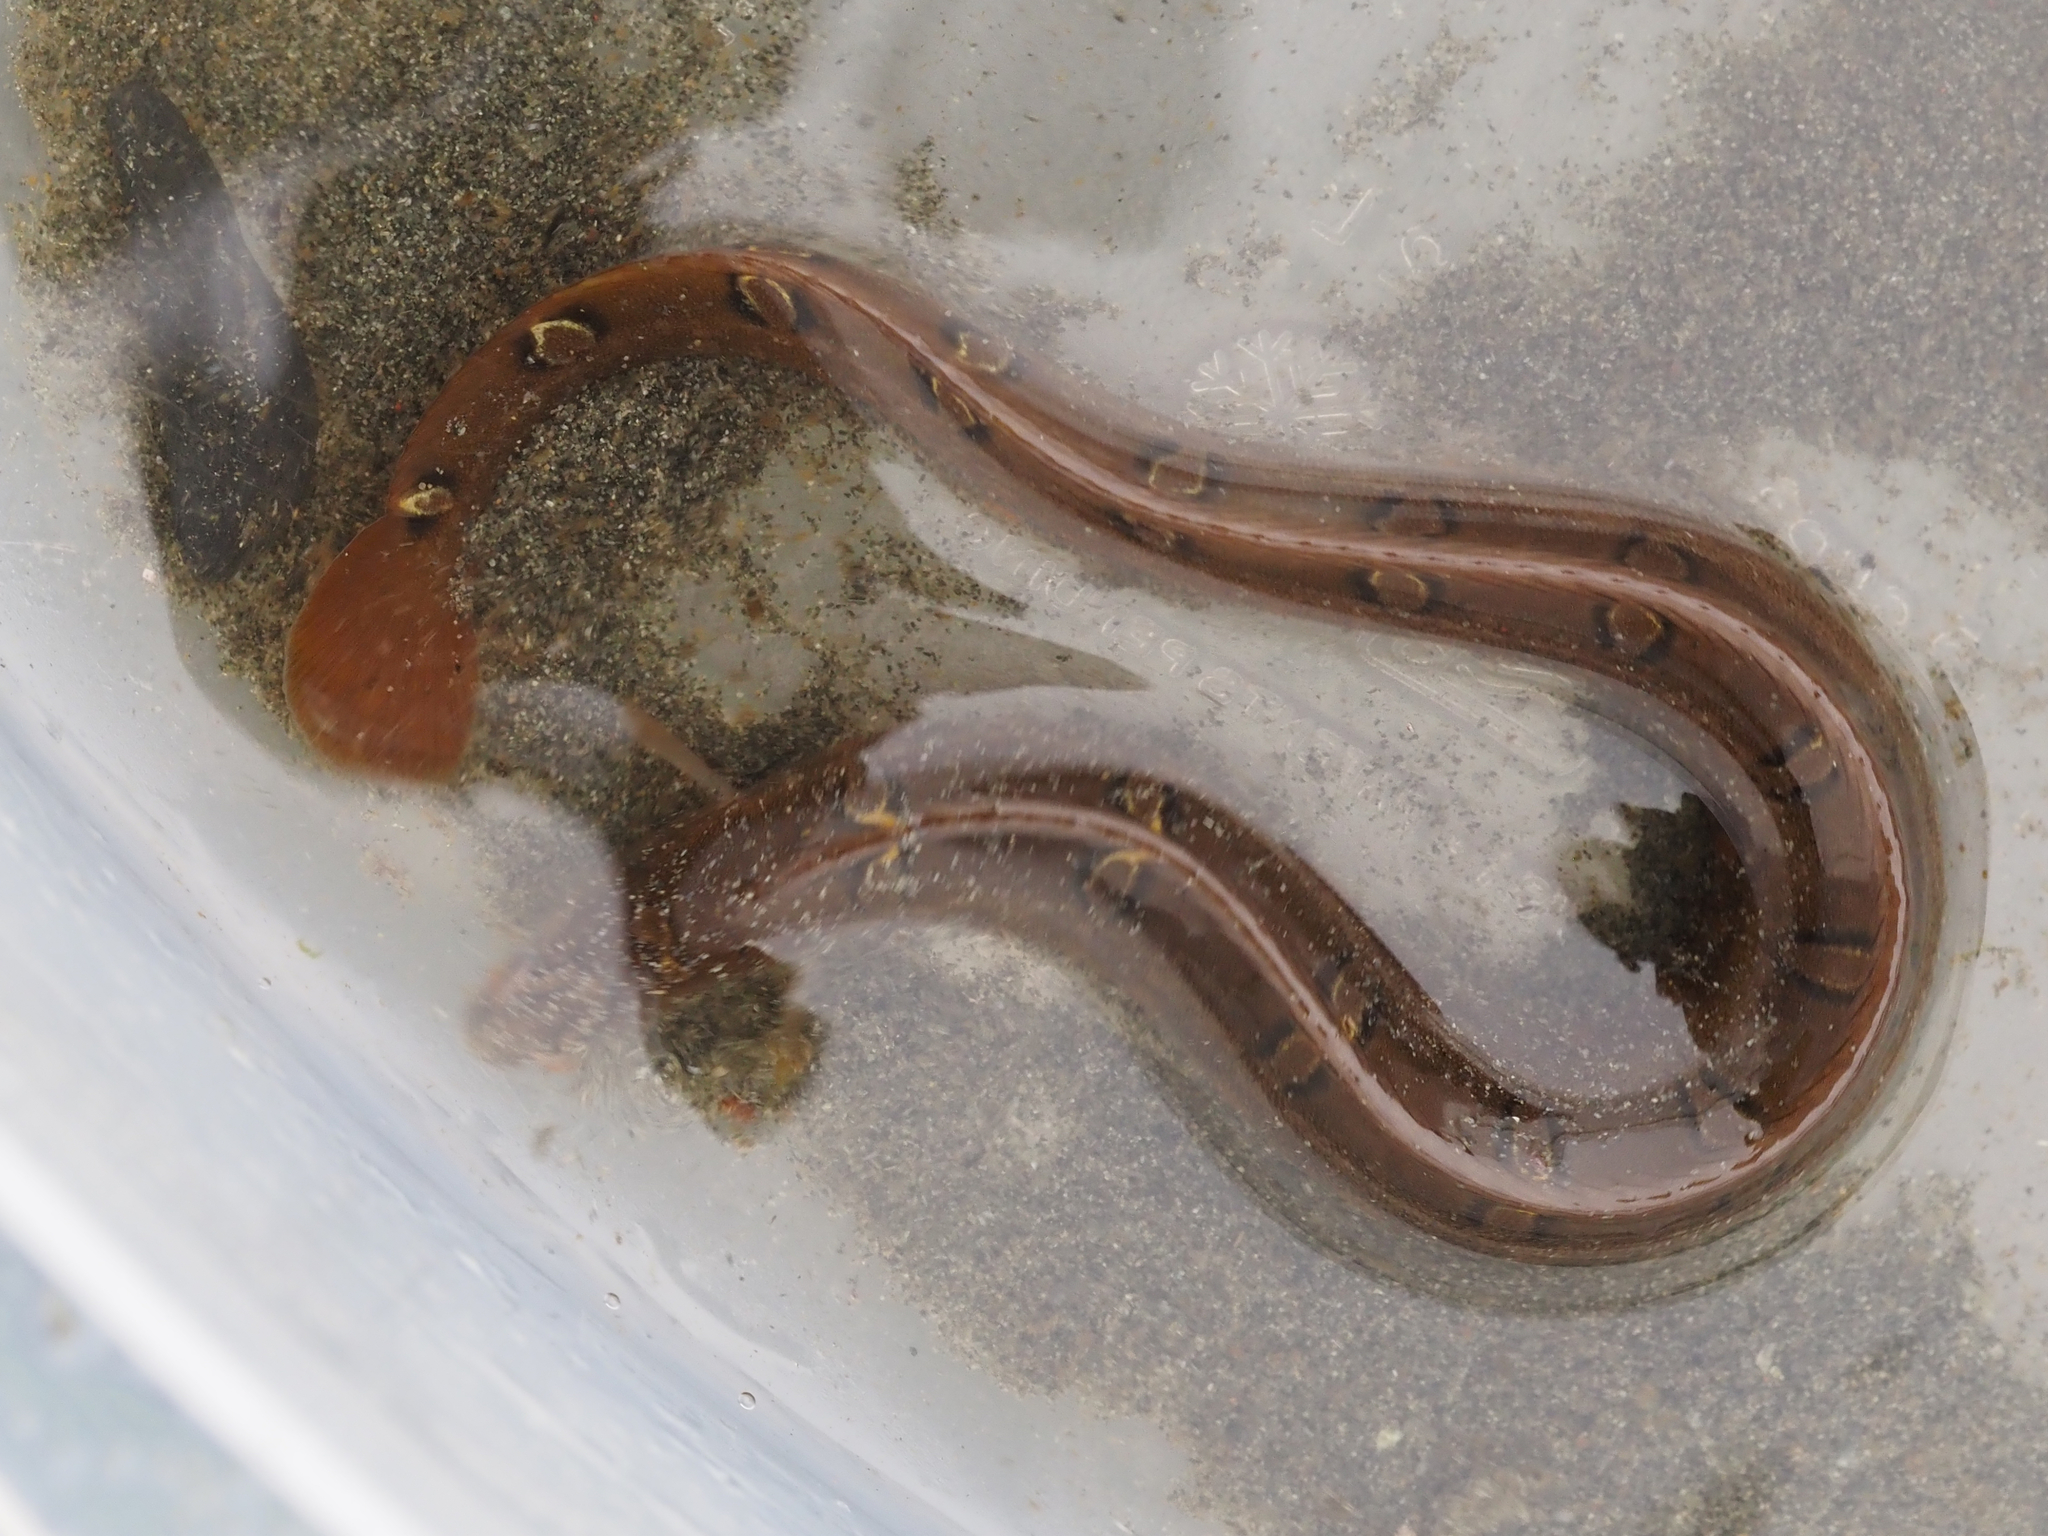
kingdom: Animalia
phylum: Chordata
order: Perciformes
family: Pholidae
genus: Pholis
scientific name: Pholis laeta
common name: Crescent gunnel
